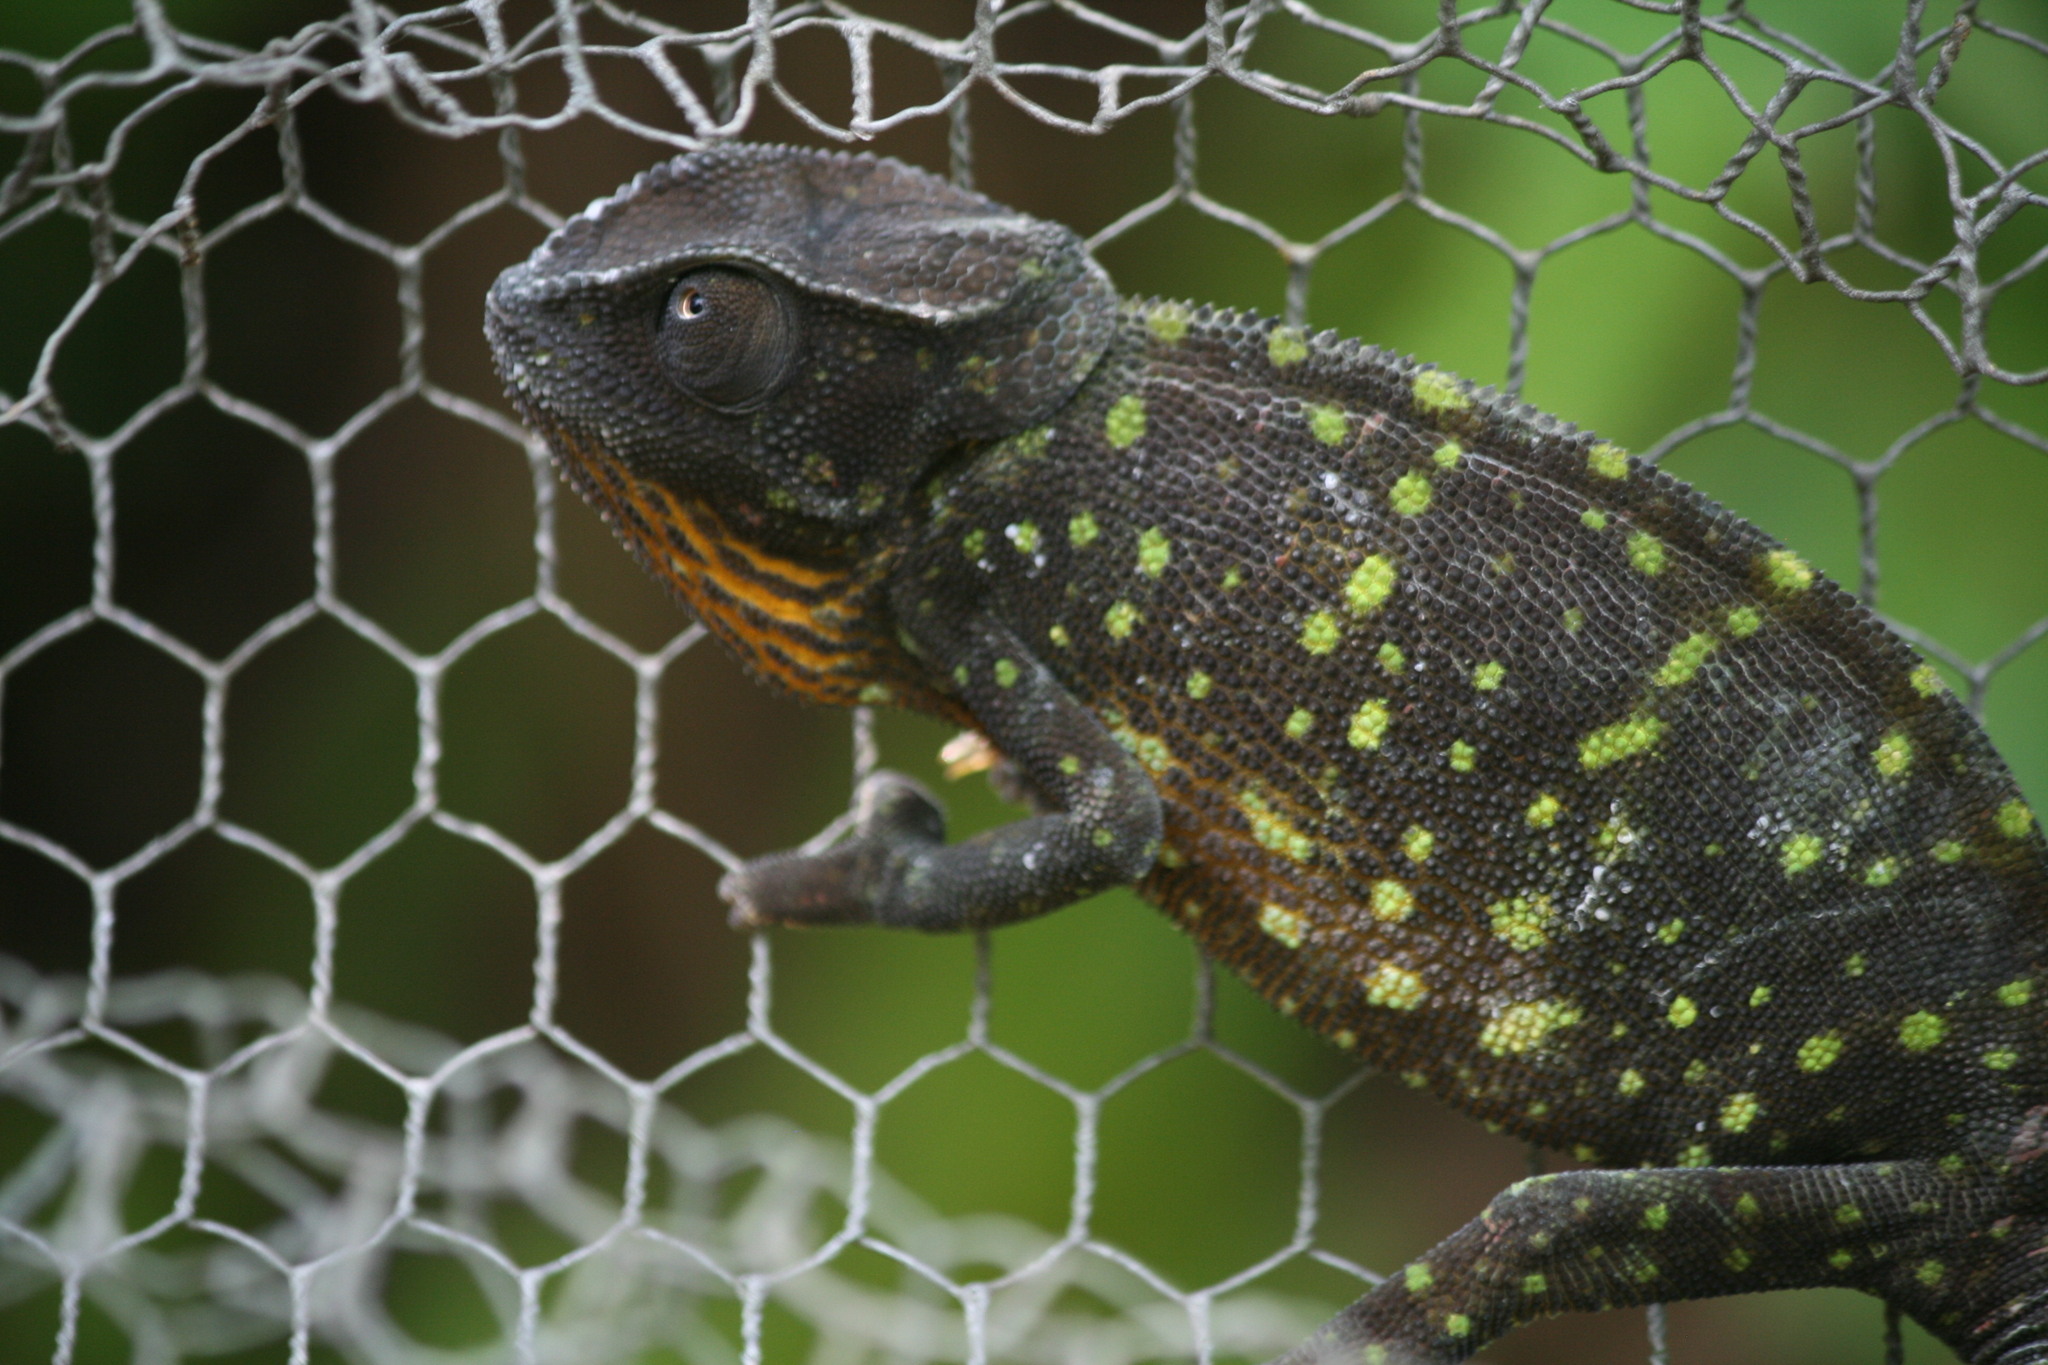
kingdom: Animalia
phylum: Chordata
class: Squamata
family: Chamaeleonidae
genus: Chamaeleo
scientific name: Chamaeleo dilepis
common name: Flapneck chameleon
